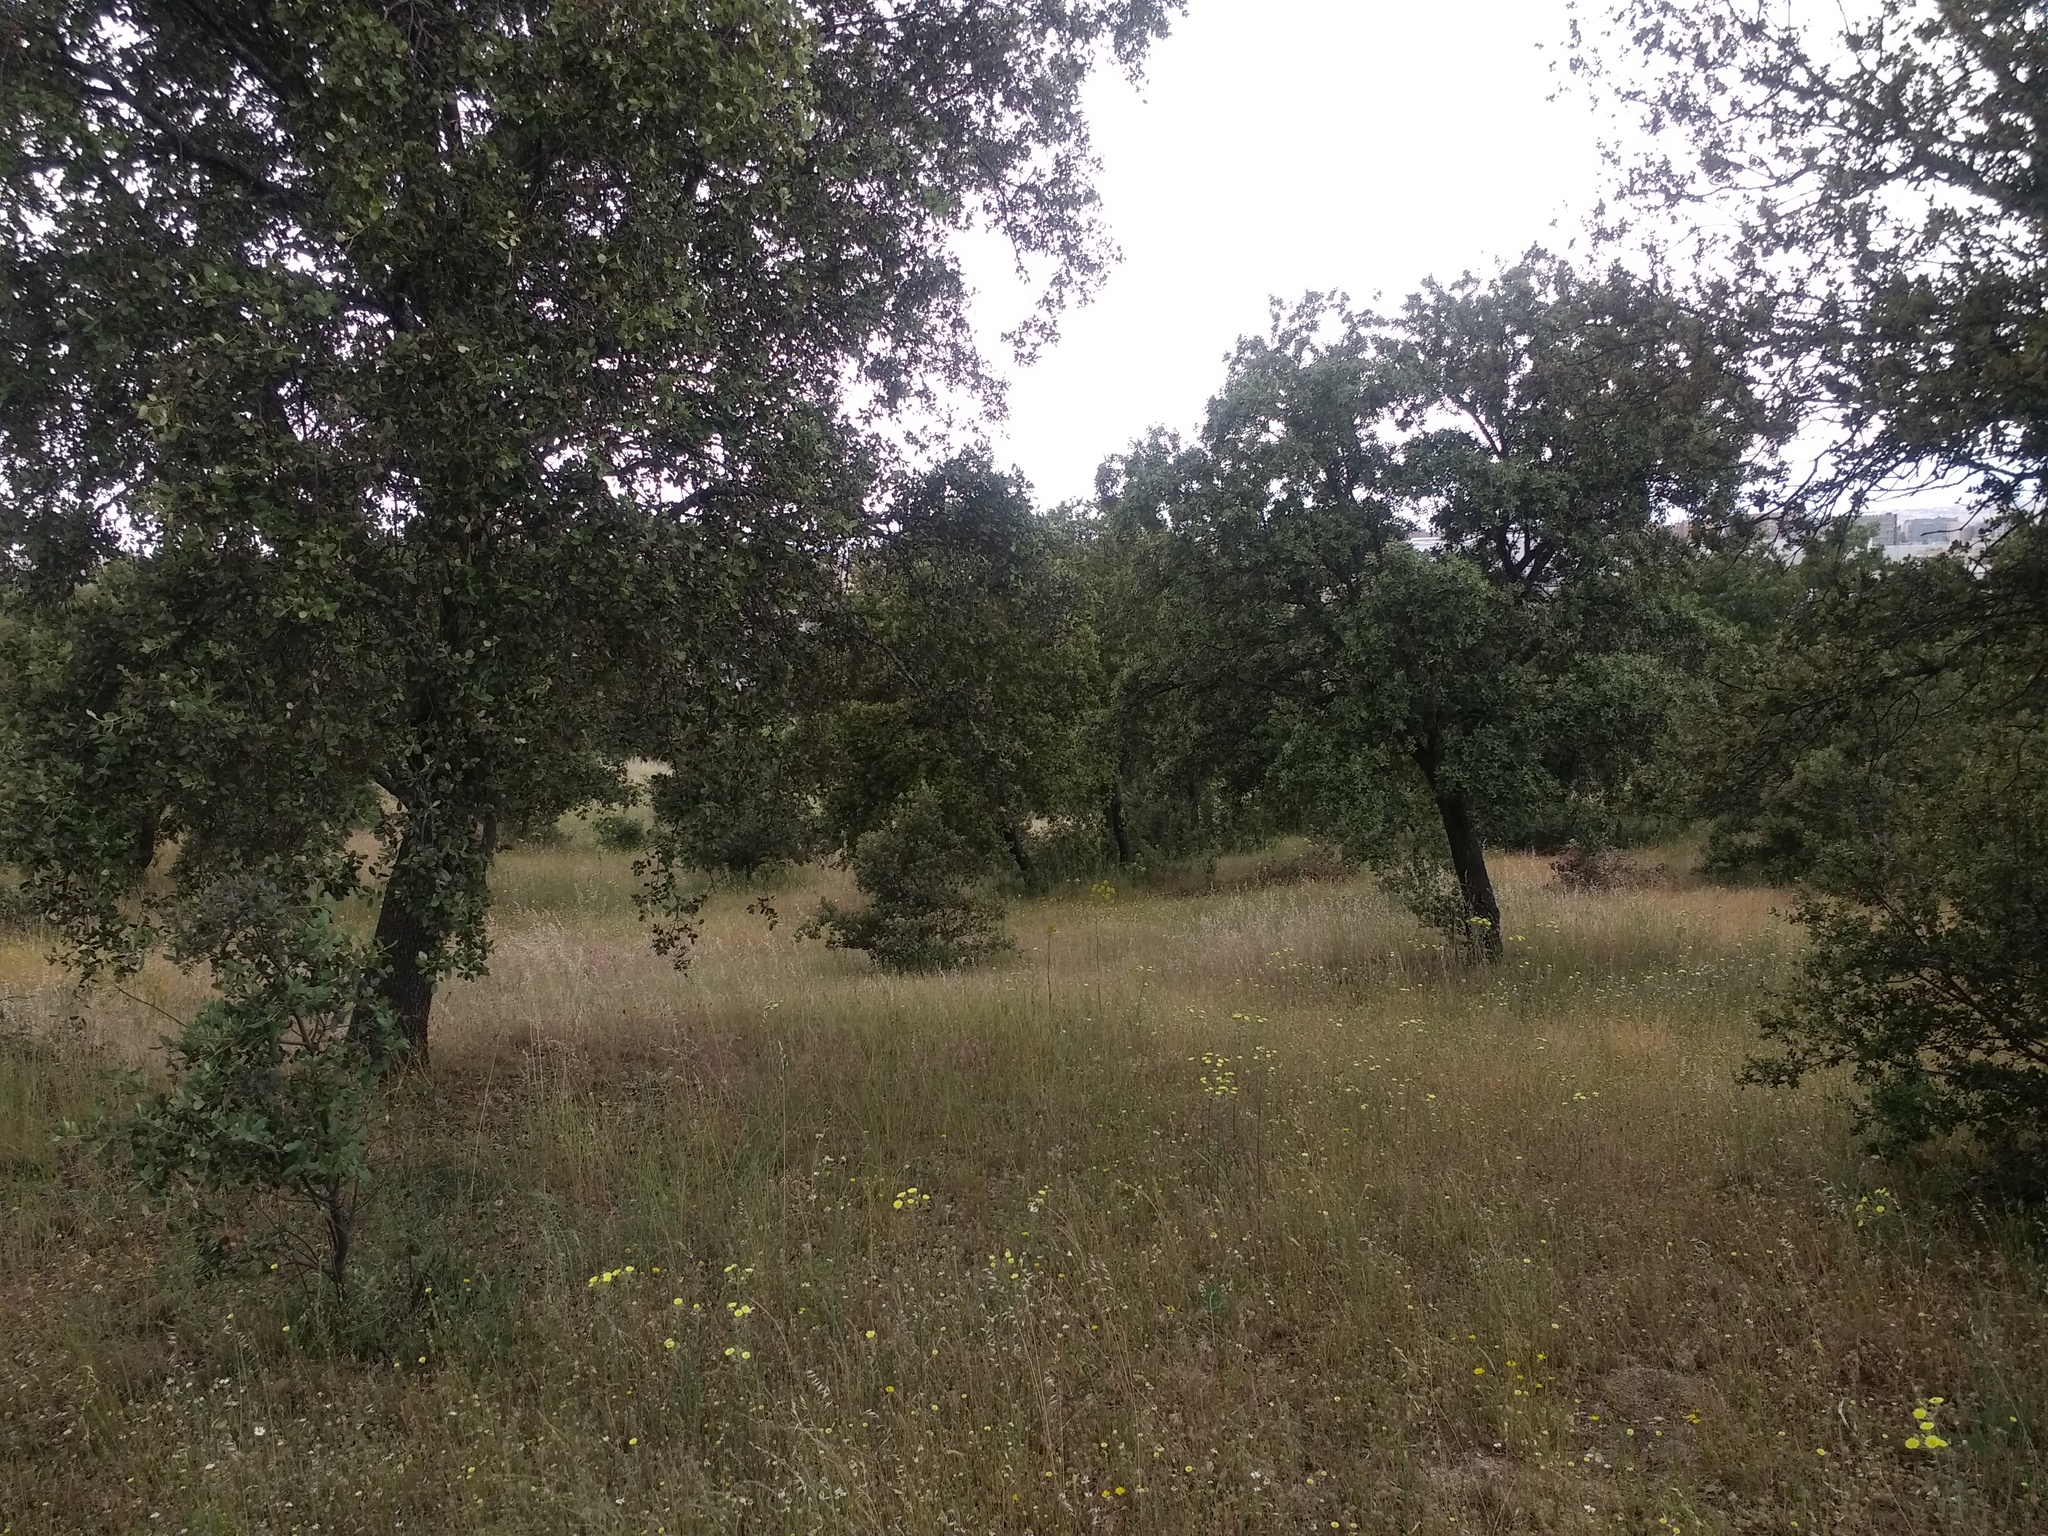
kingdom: Plantae
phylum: Tracheophyta
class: Magnoliopsida
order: Fagales
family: Fagaceae
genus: Quercus
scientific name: Quercus rotundifolia
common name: Holm oak
